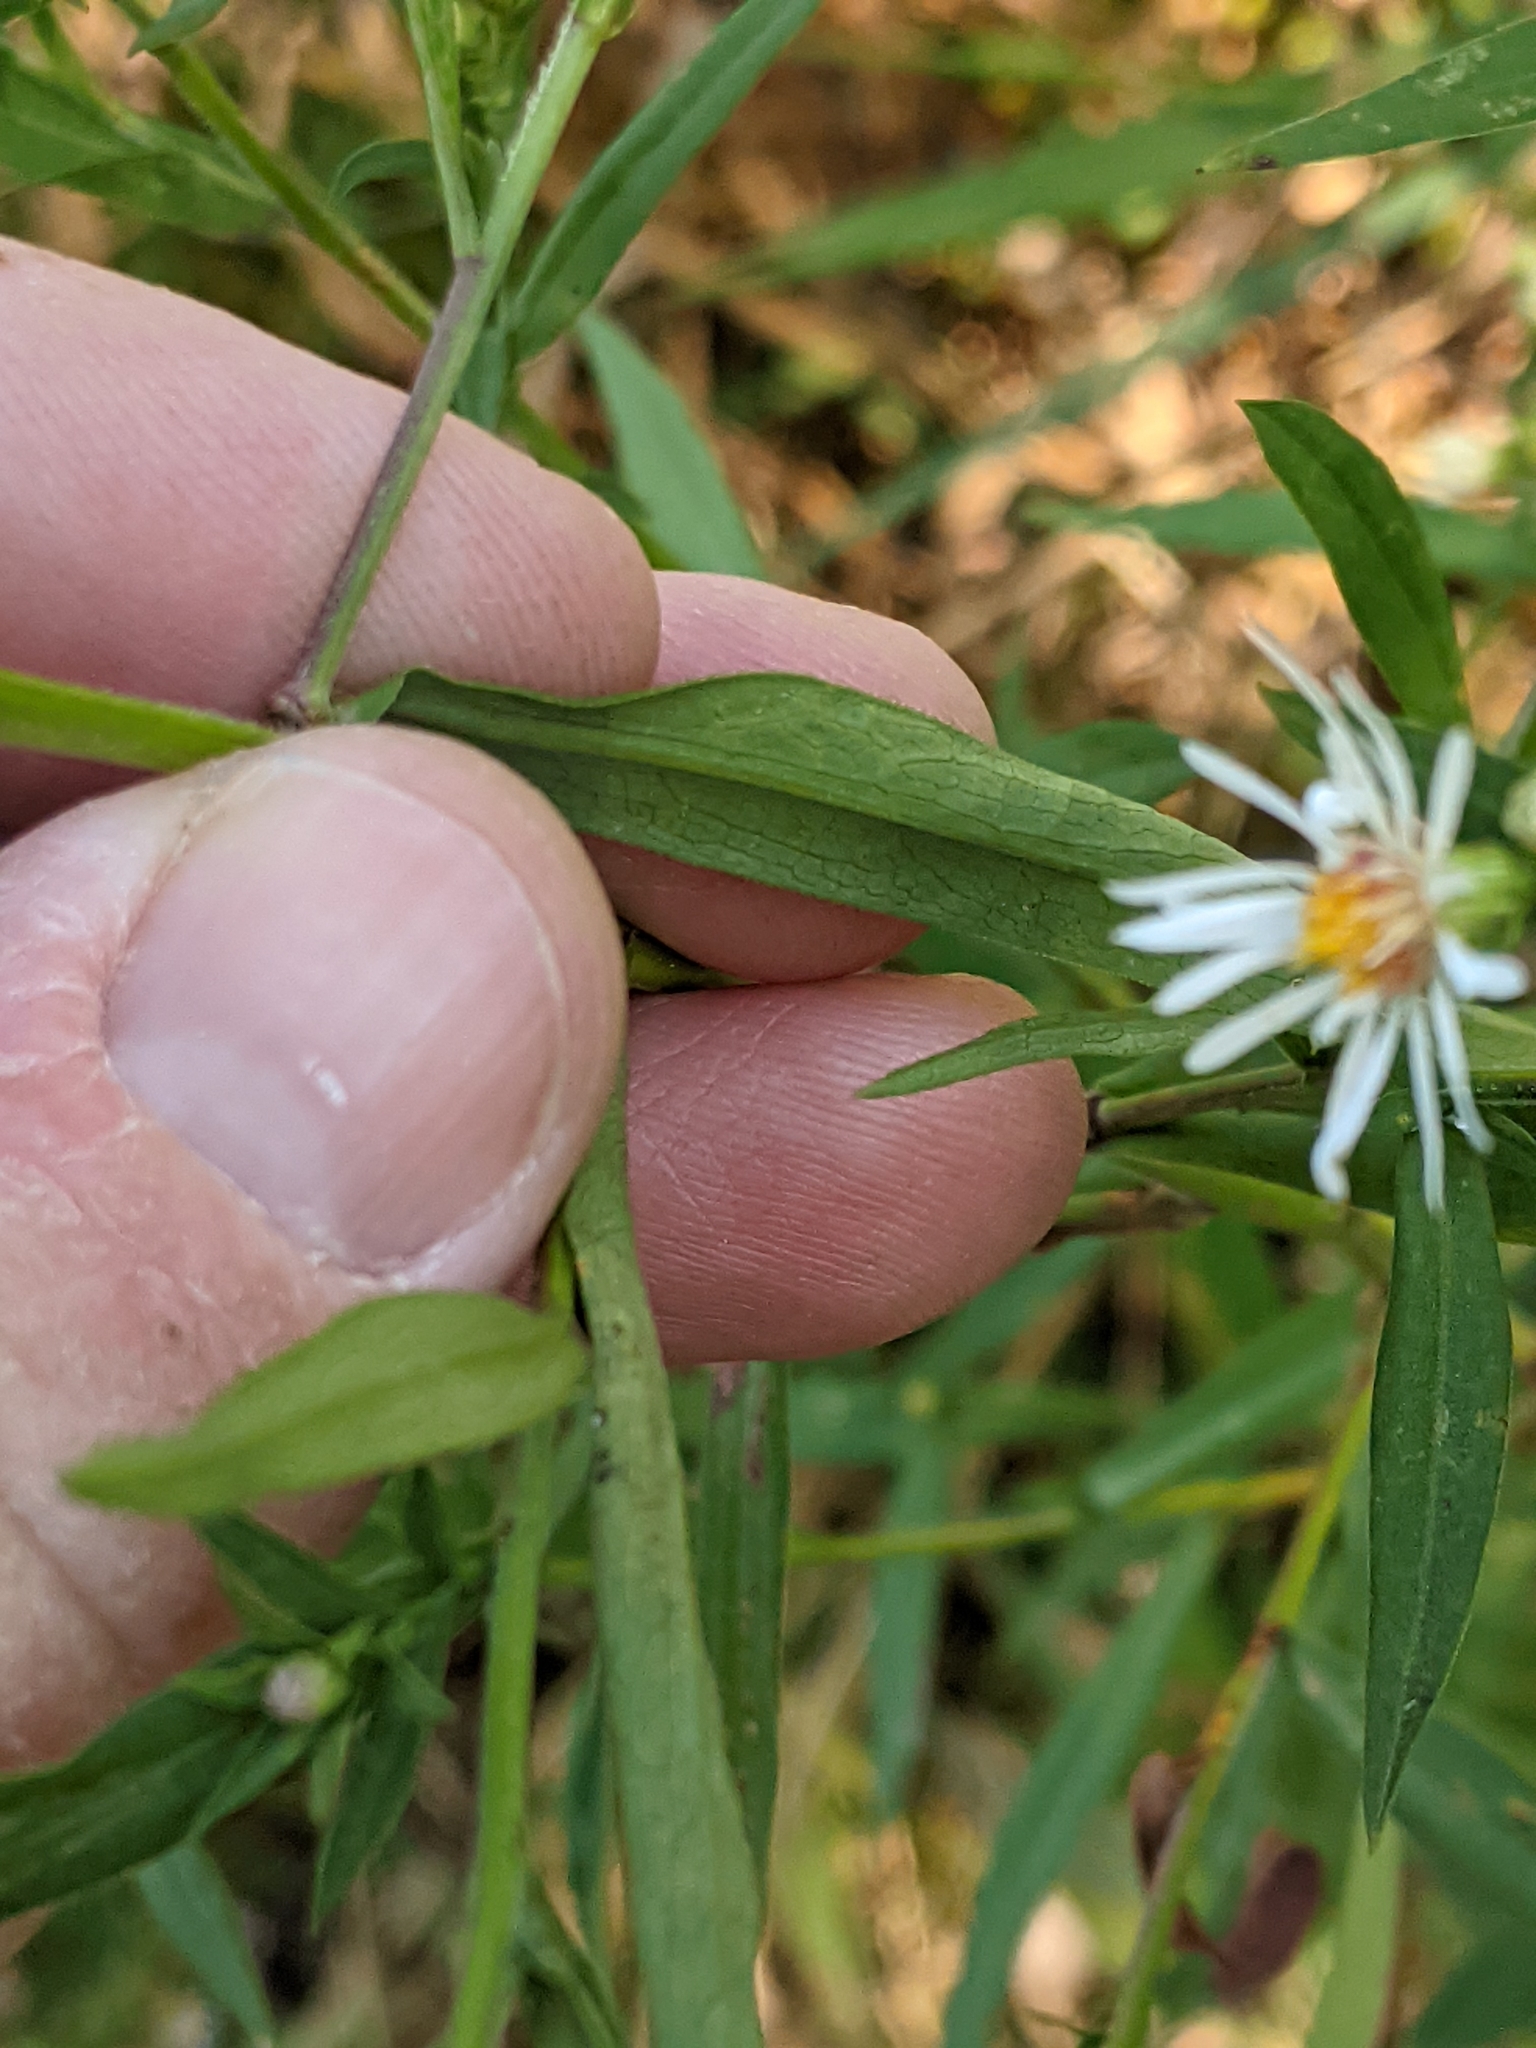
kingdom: Plantae
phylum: Tracheophyta
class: Magnoliopsida
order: Asterales
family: Asteraceae
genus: Symphyotrichum
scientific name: Symphyotrichum lanceolatum
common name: Panicled aster
